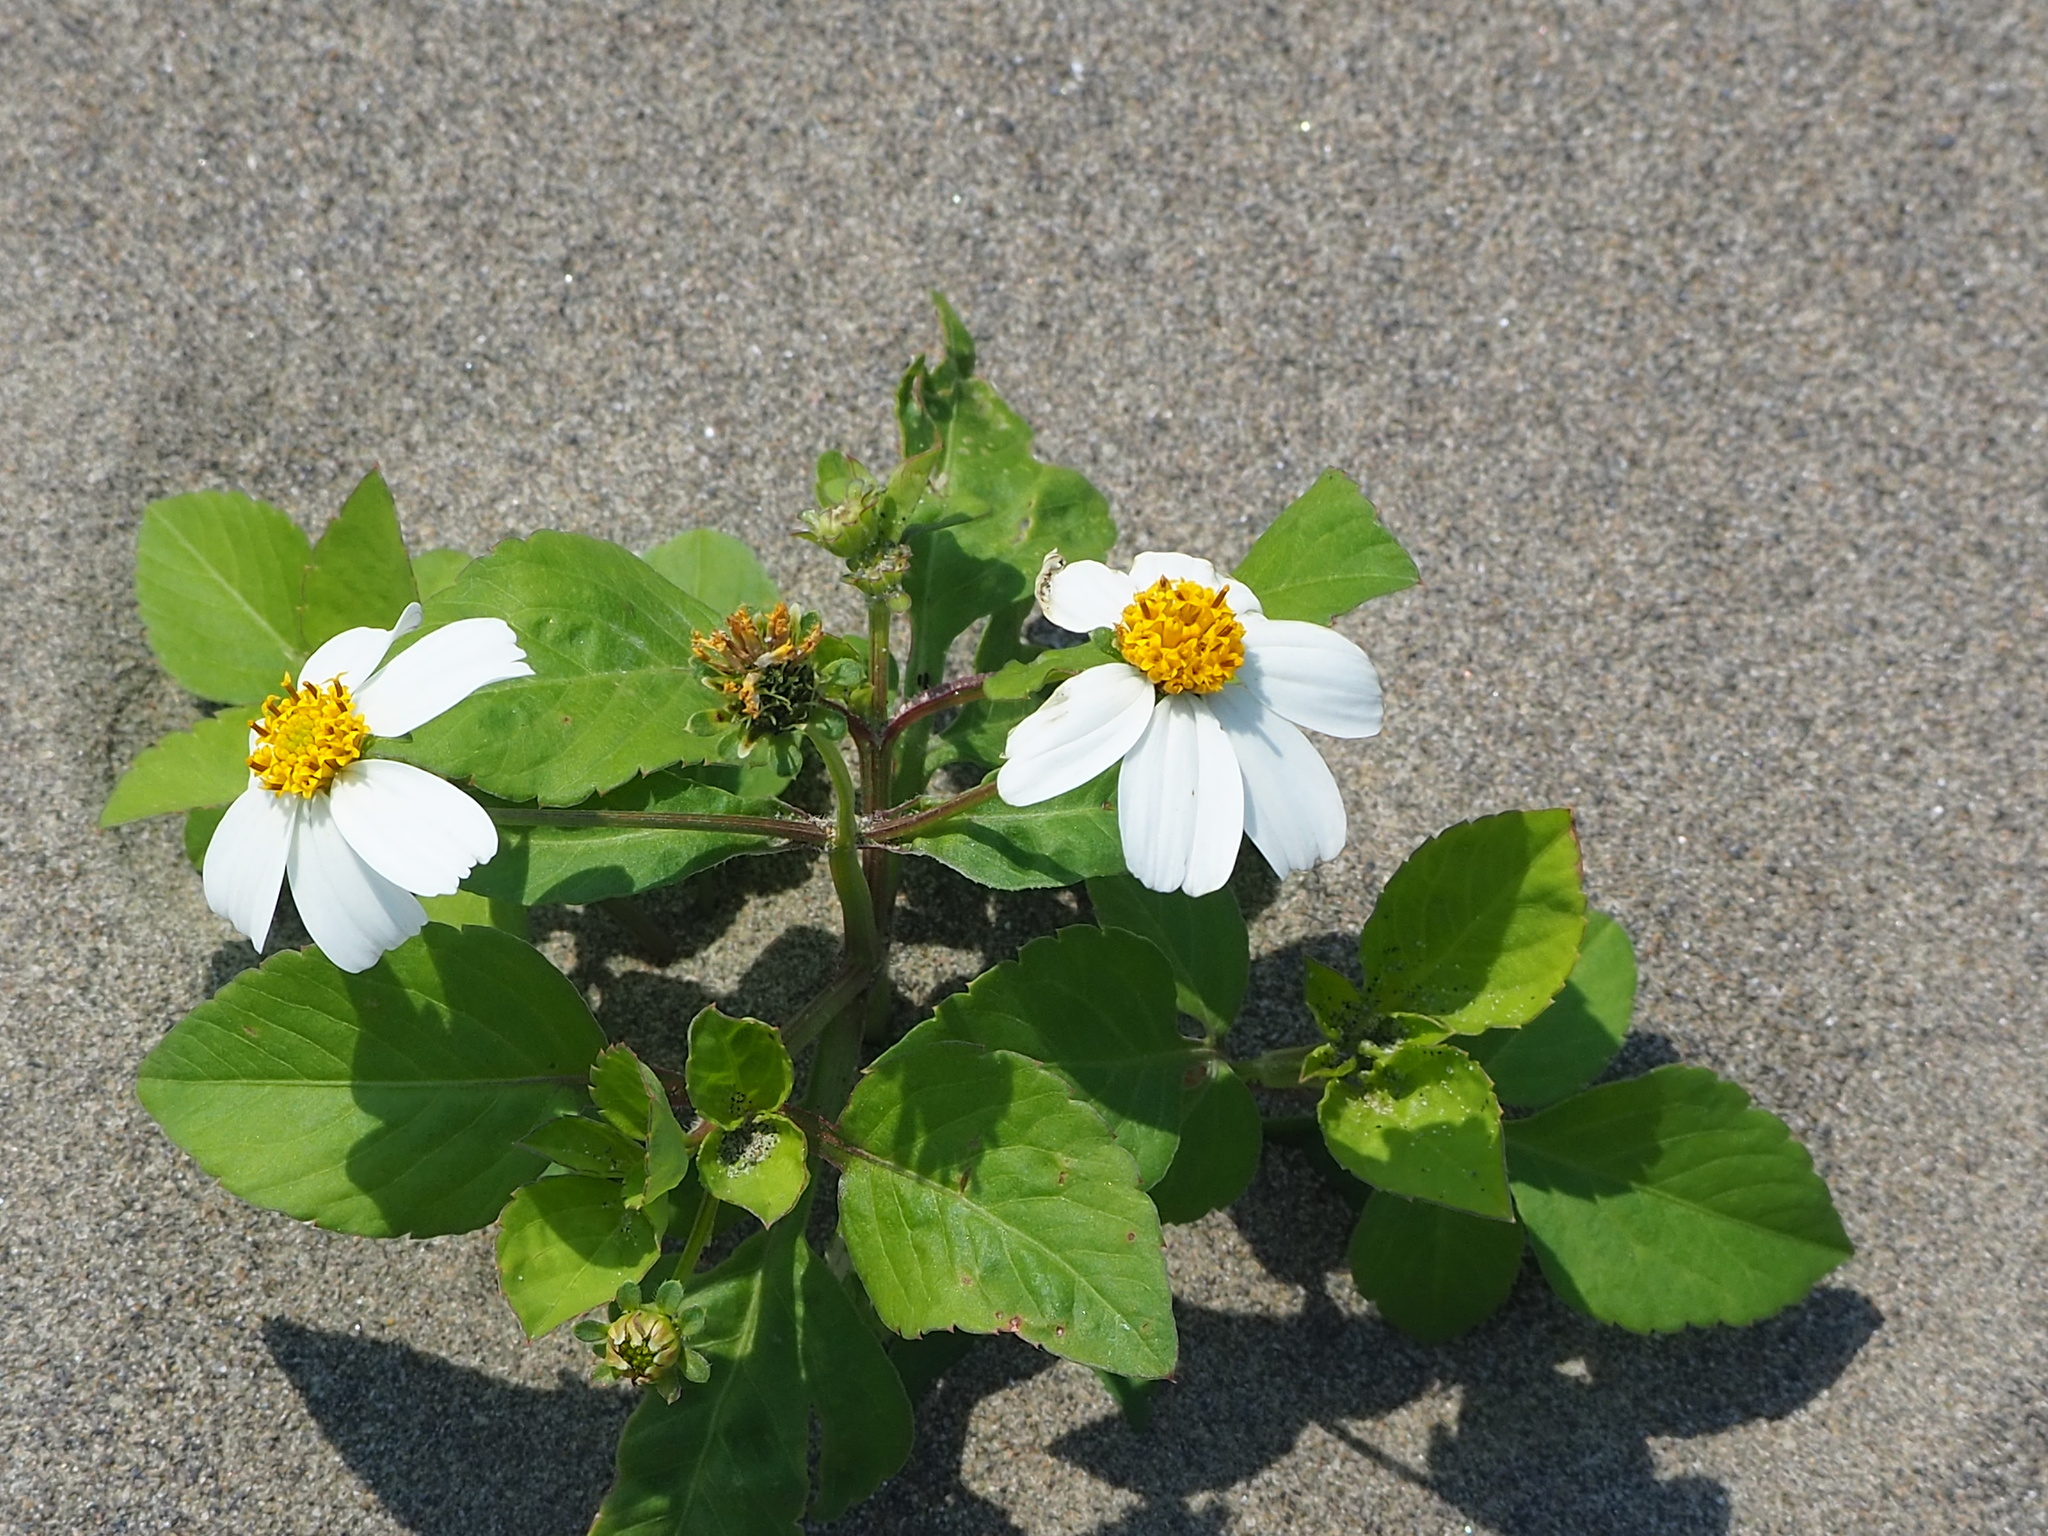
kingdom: Plantae
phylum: Tracheophyta
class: Magnoliopsida
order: Asterales
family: Asteraceae
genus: Bidens
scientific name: Bidens alba
